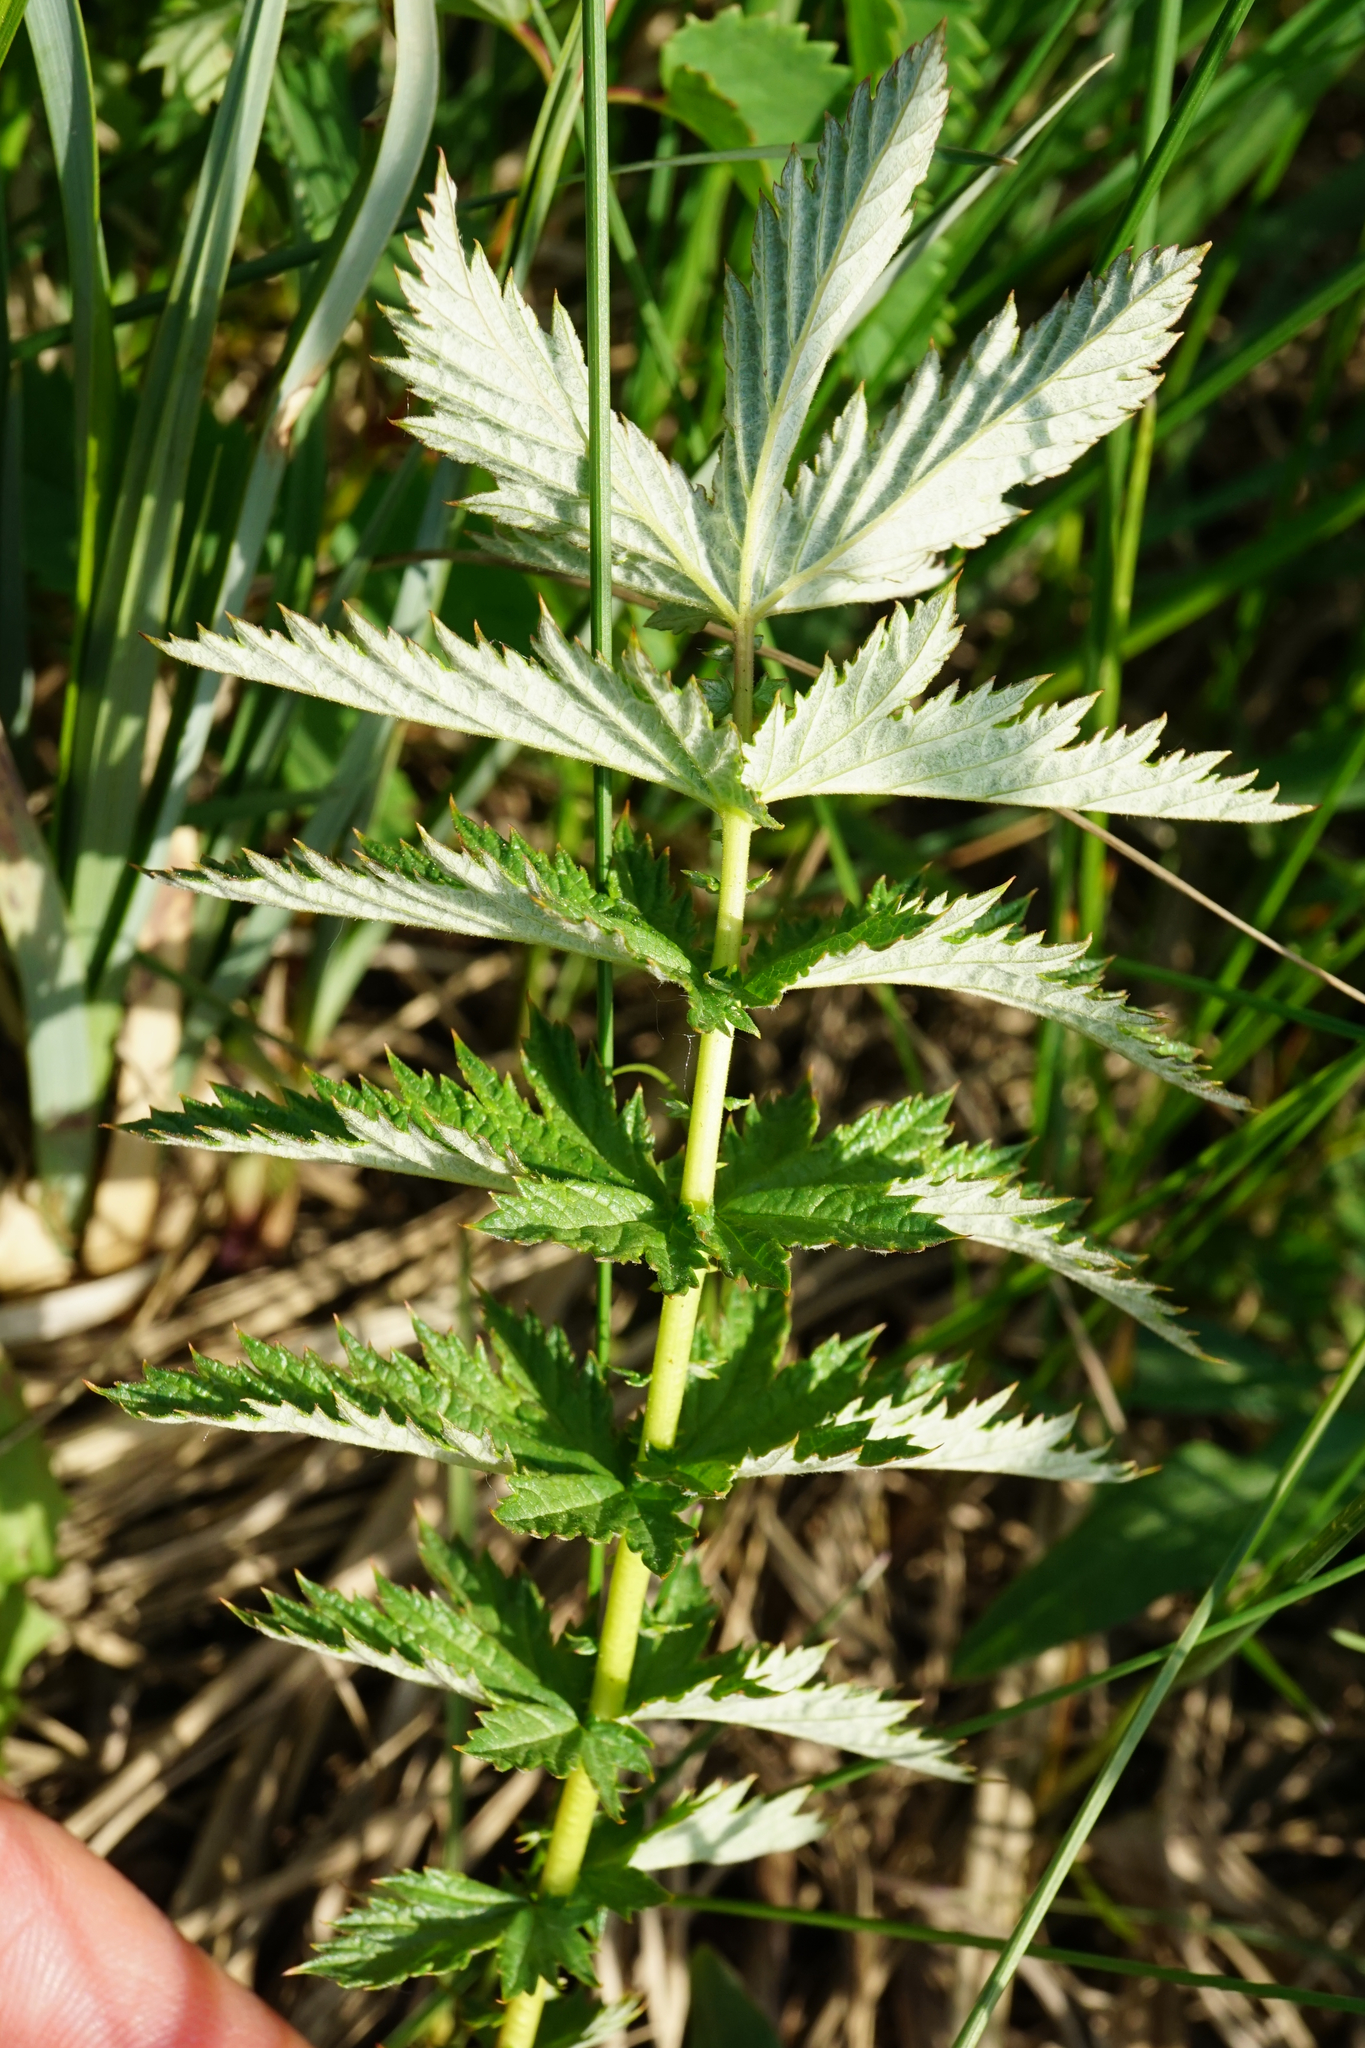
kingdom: Plantae
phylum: Tracheophyta
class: Magnoliopsida
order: Rosales
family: Rosaceae
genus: Filipendula
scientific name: Filipendula ulmaria
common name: Meadowsweet
